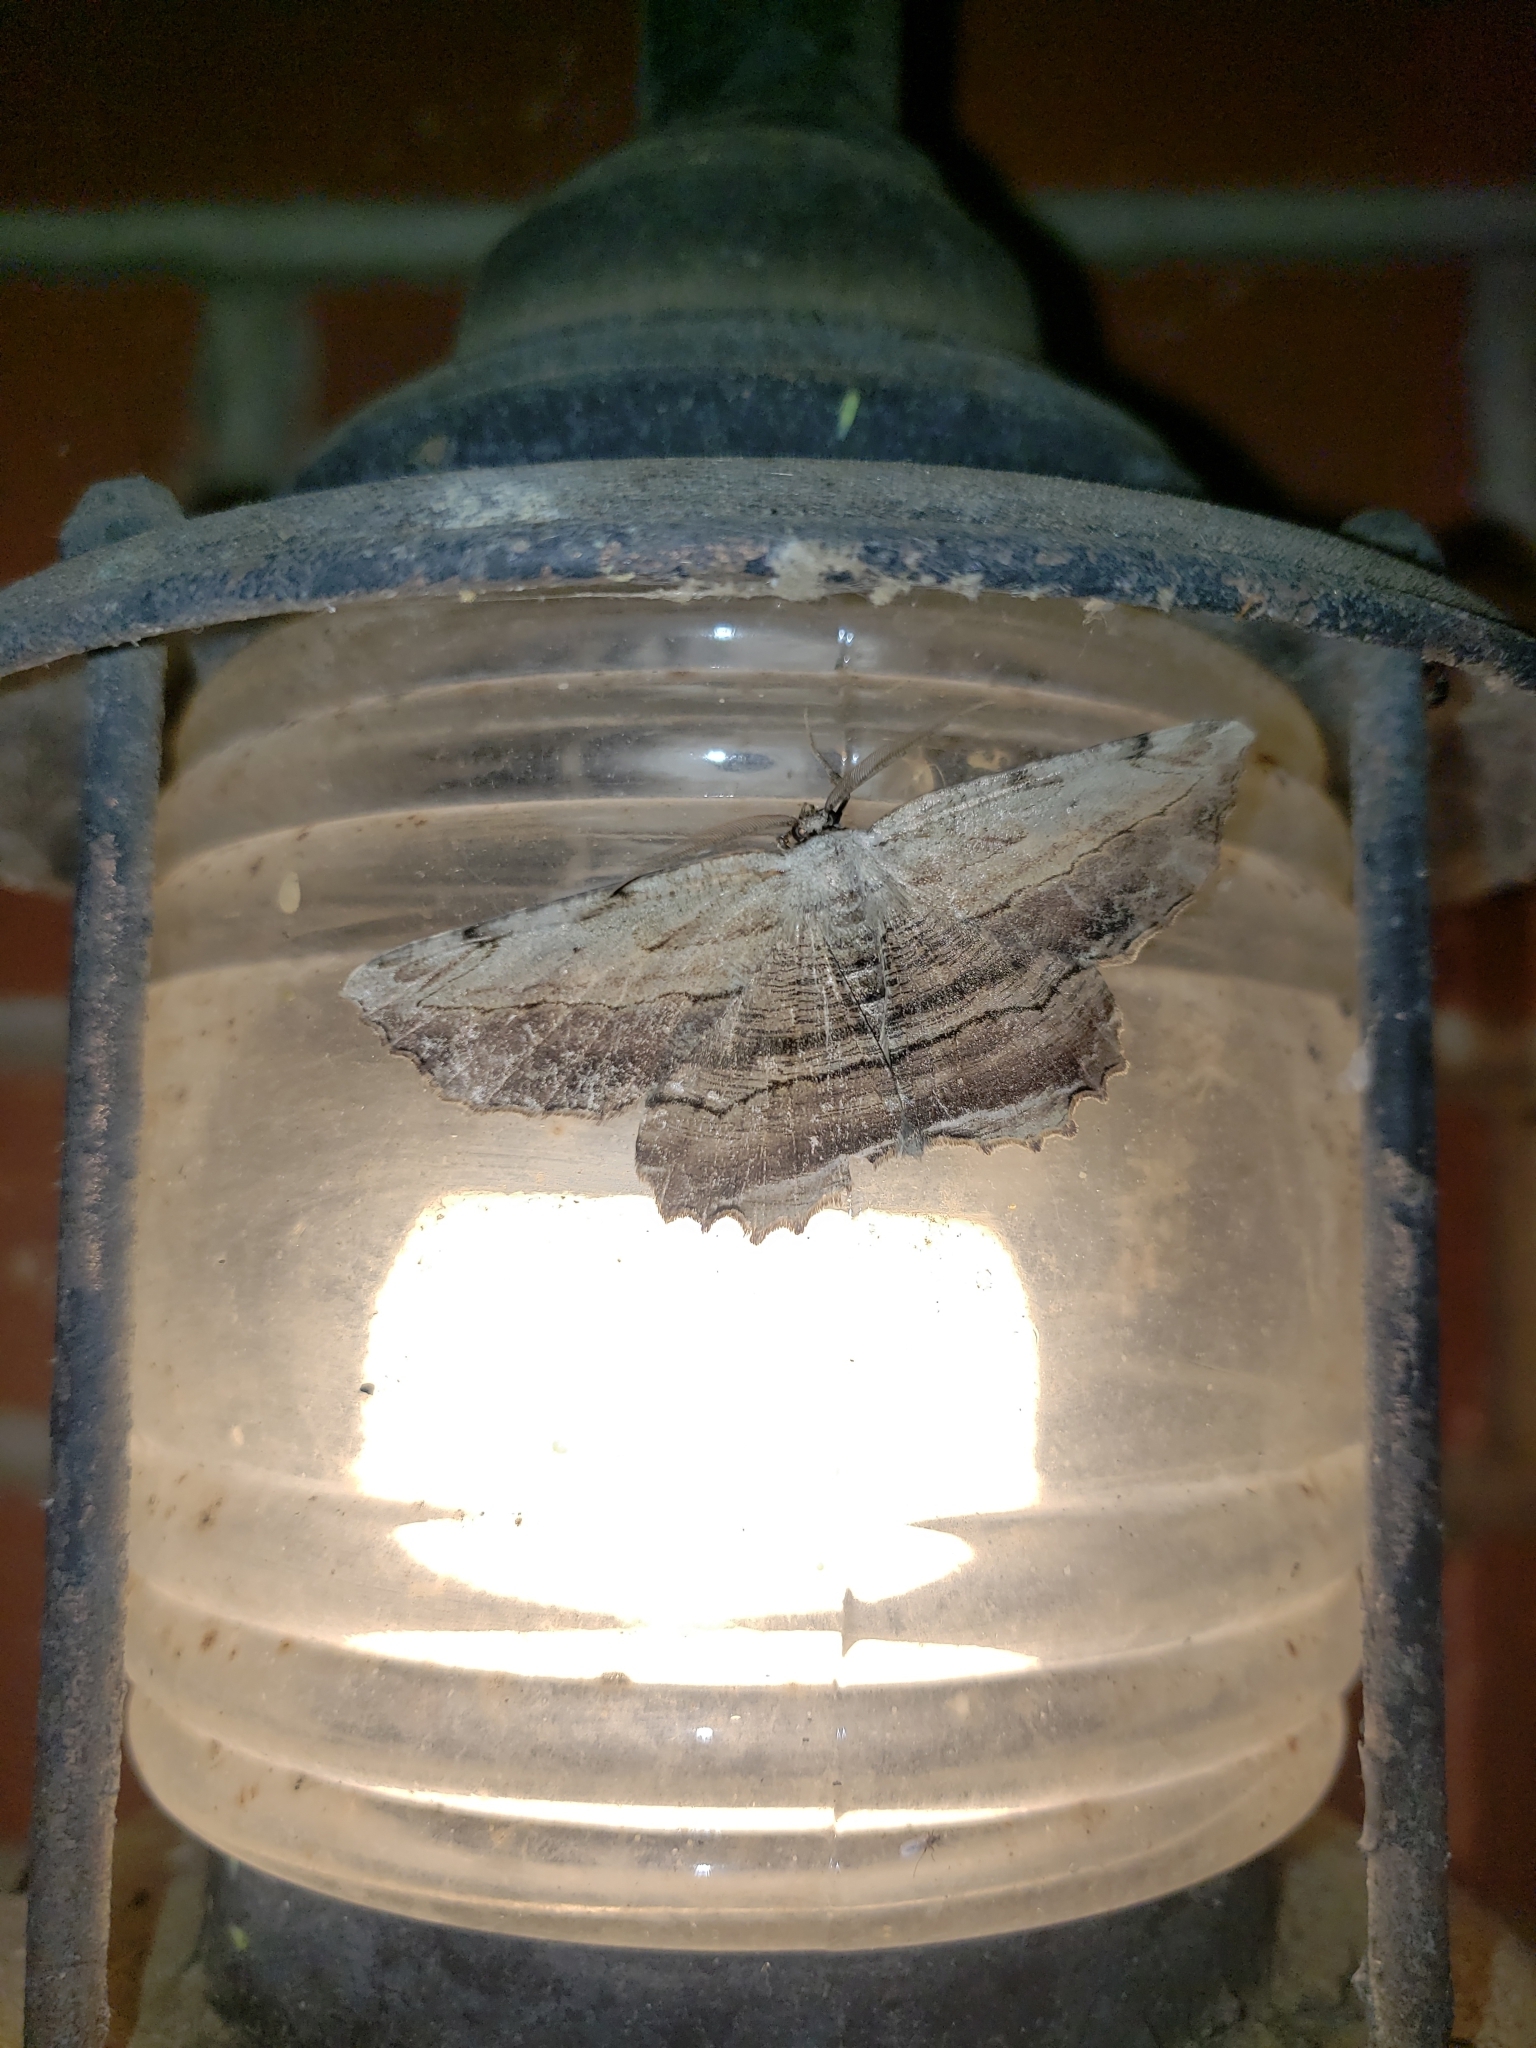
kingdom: Animalia
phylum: Arthropoda
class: Insecta
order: Lepidoptera
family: Geometridae
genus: Lytrosis
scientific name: Lytrosis unitaria
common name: Common lytrosis
